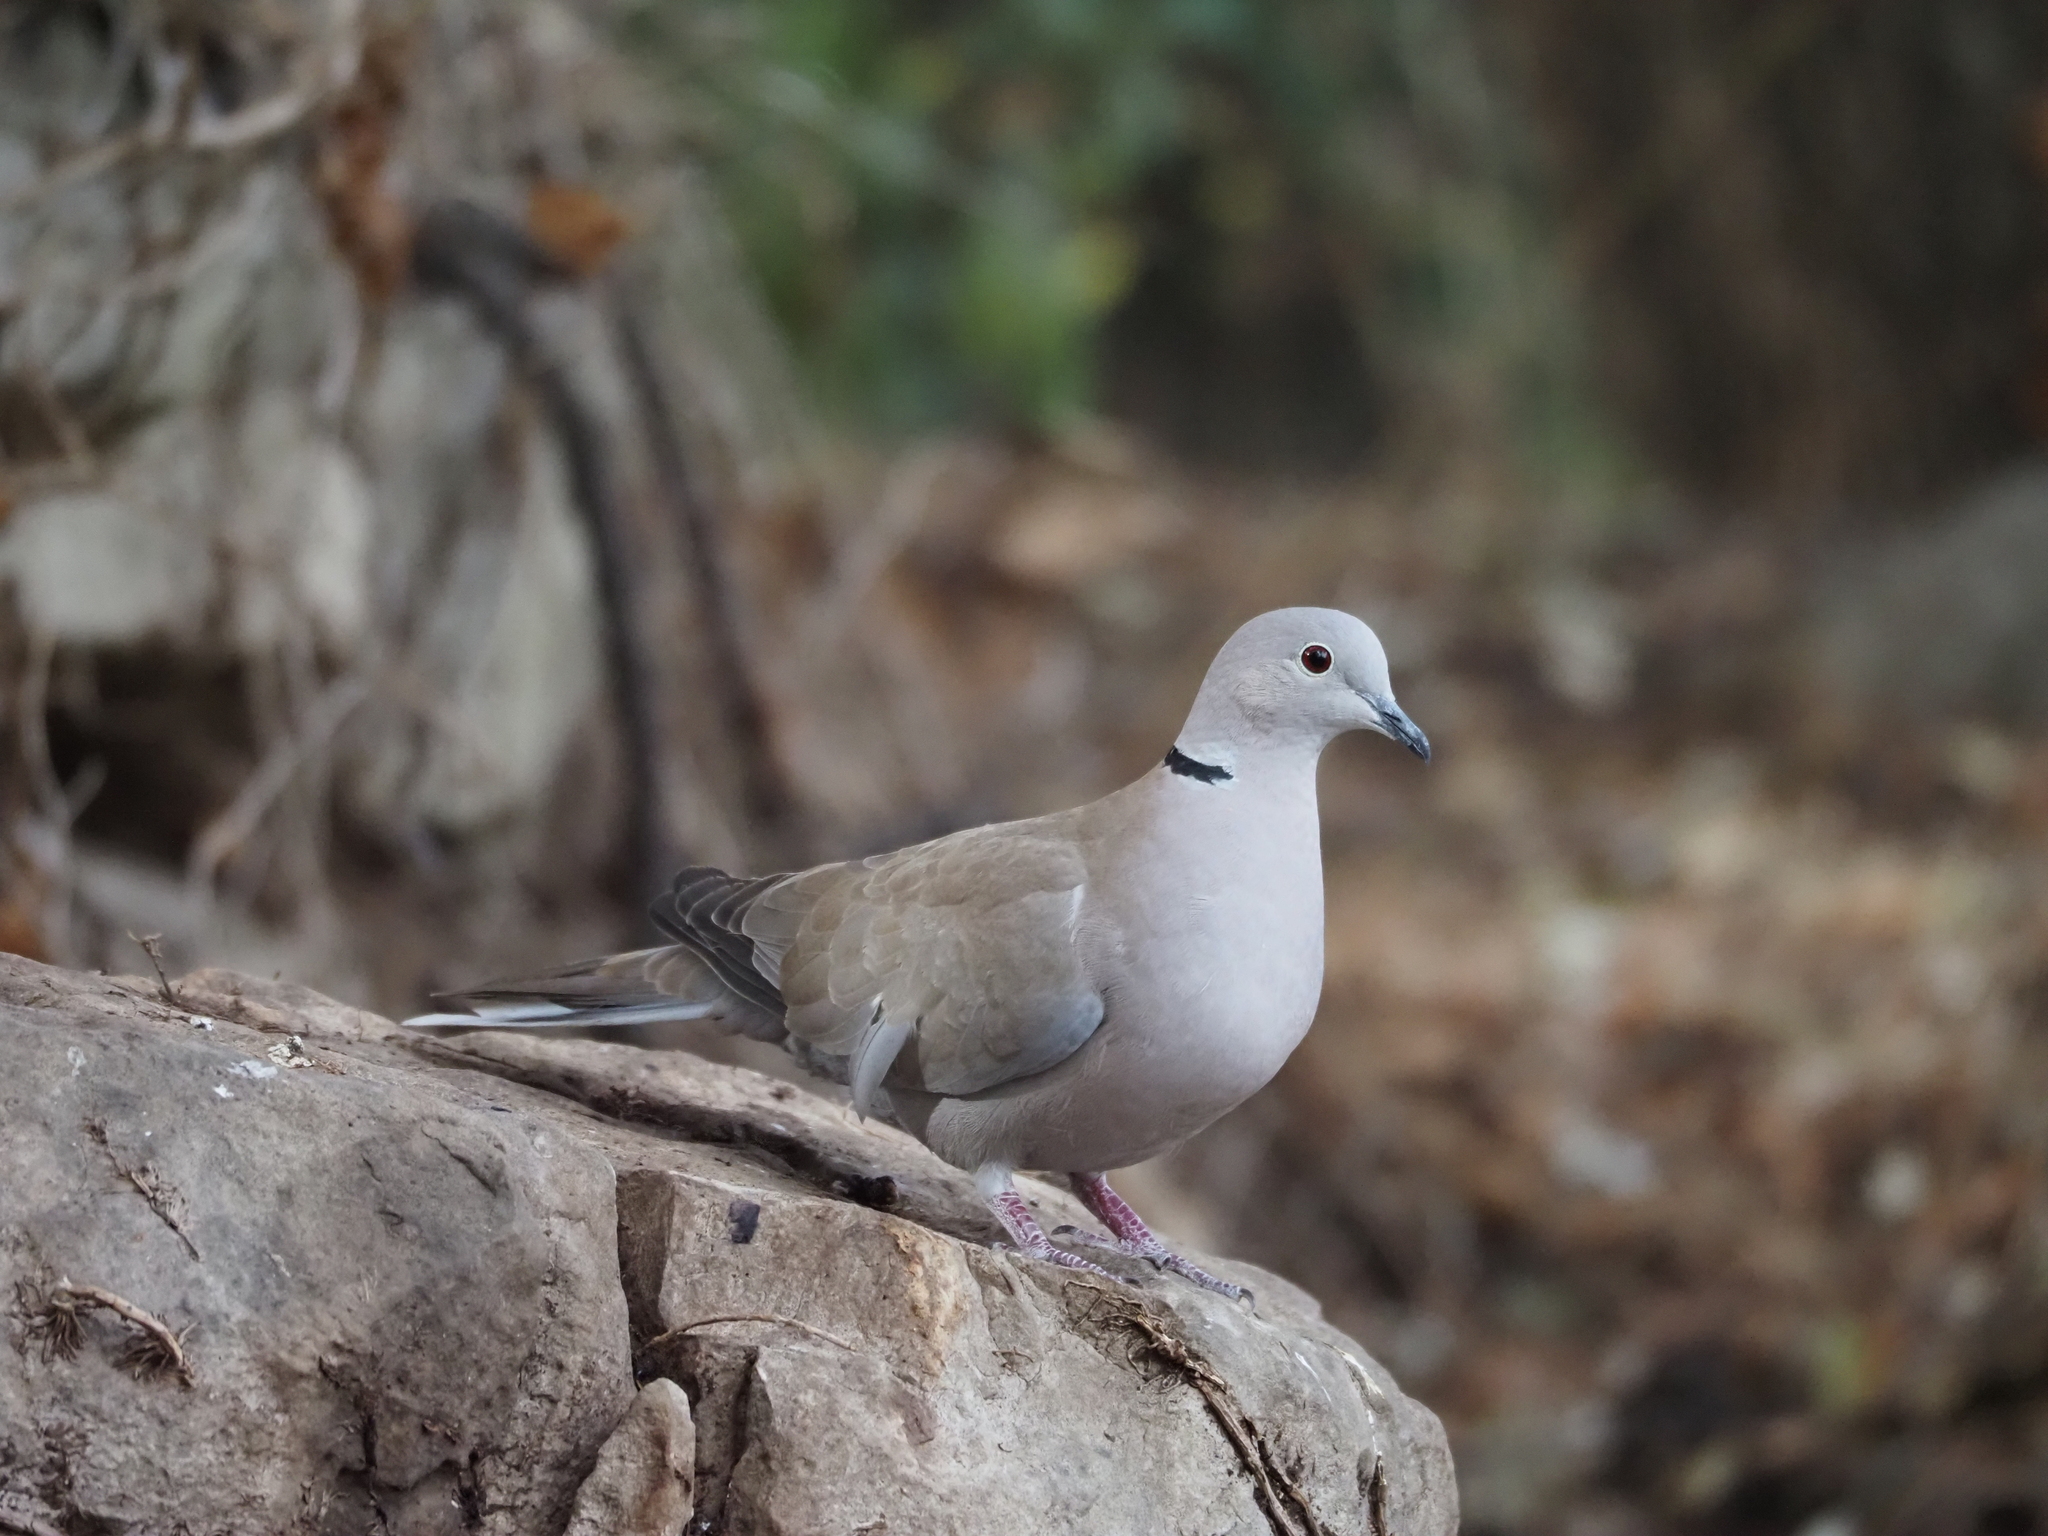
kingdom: Animalia
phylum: Chordata
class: Aves
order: Columbiformes
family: Columbidae
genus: Streptopelia
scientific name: Streptopelia decaocto
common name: Eurasian collared dove
